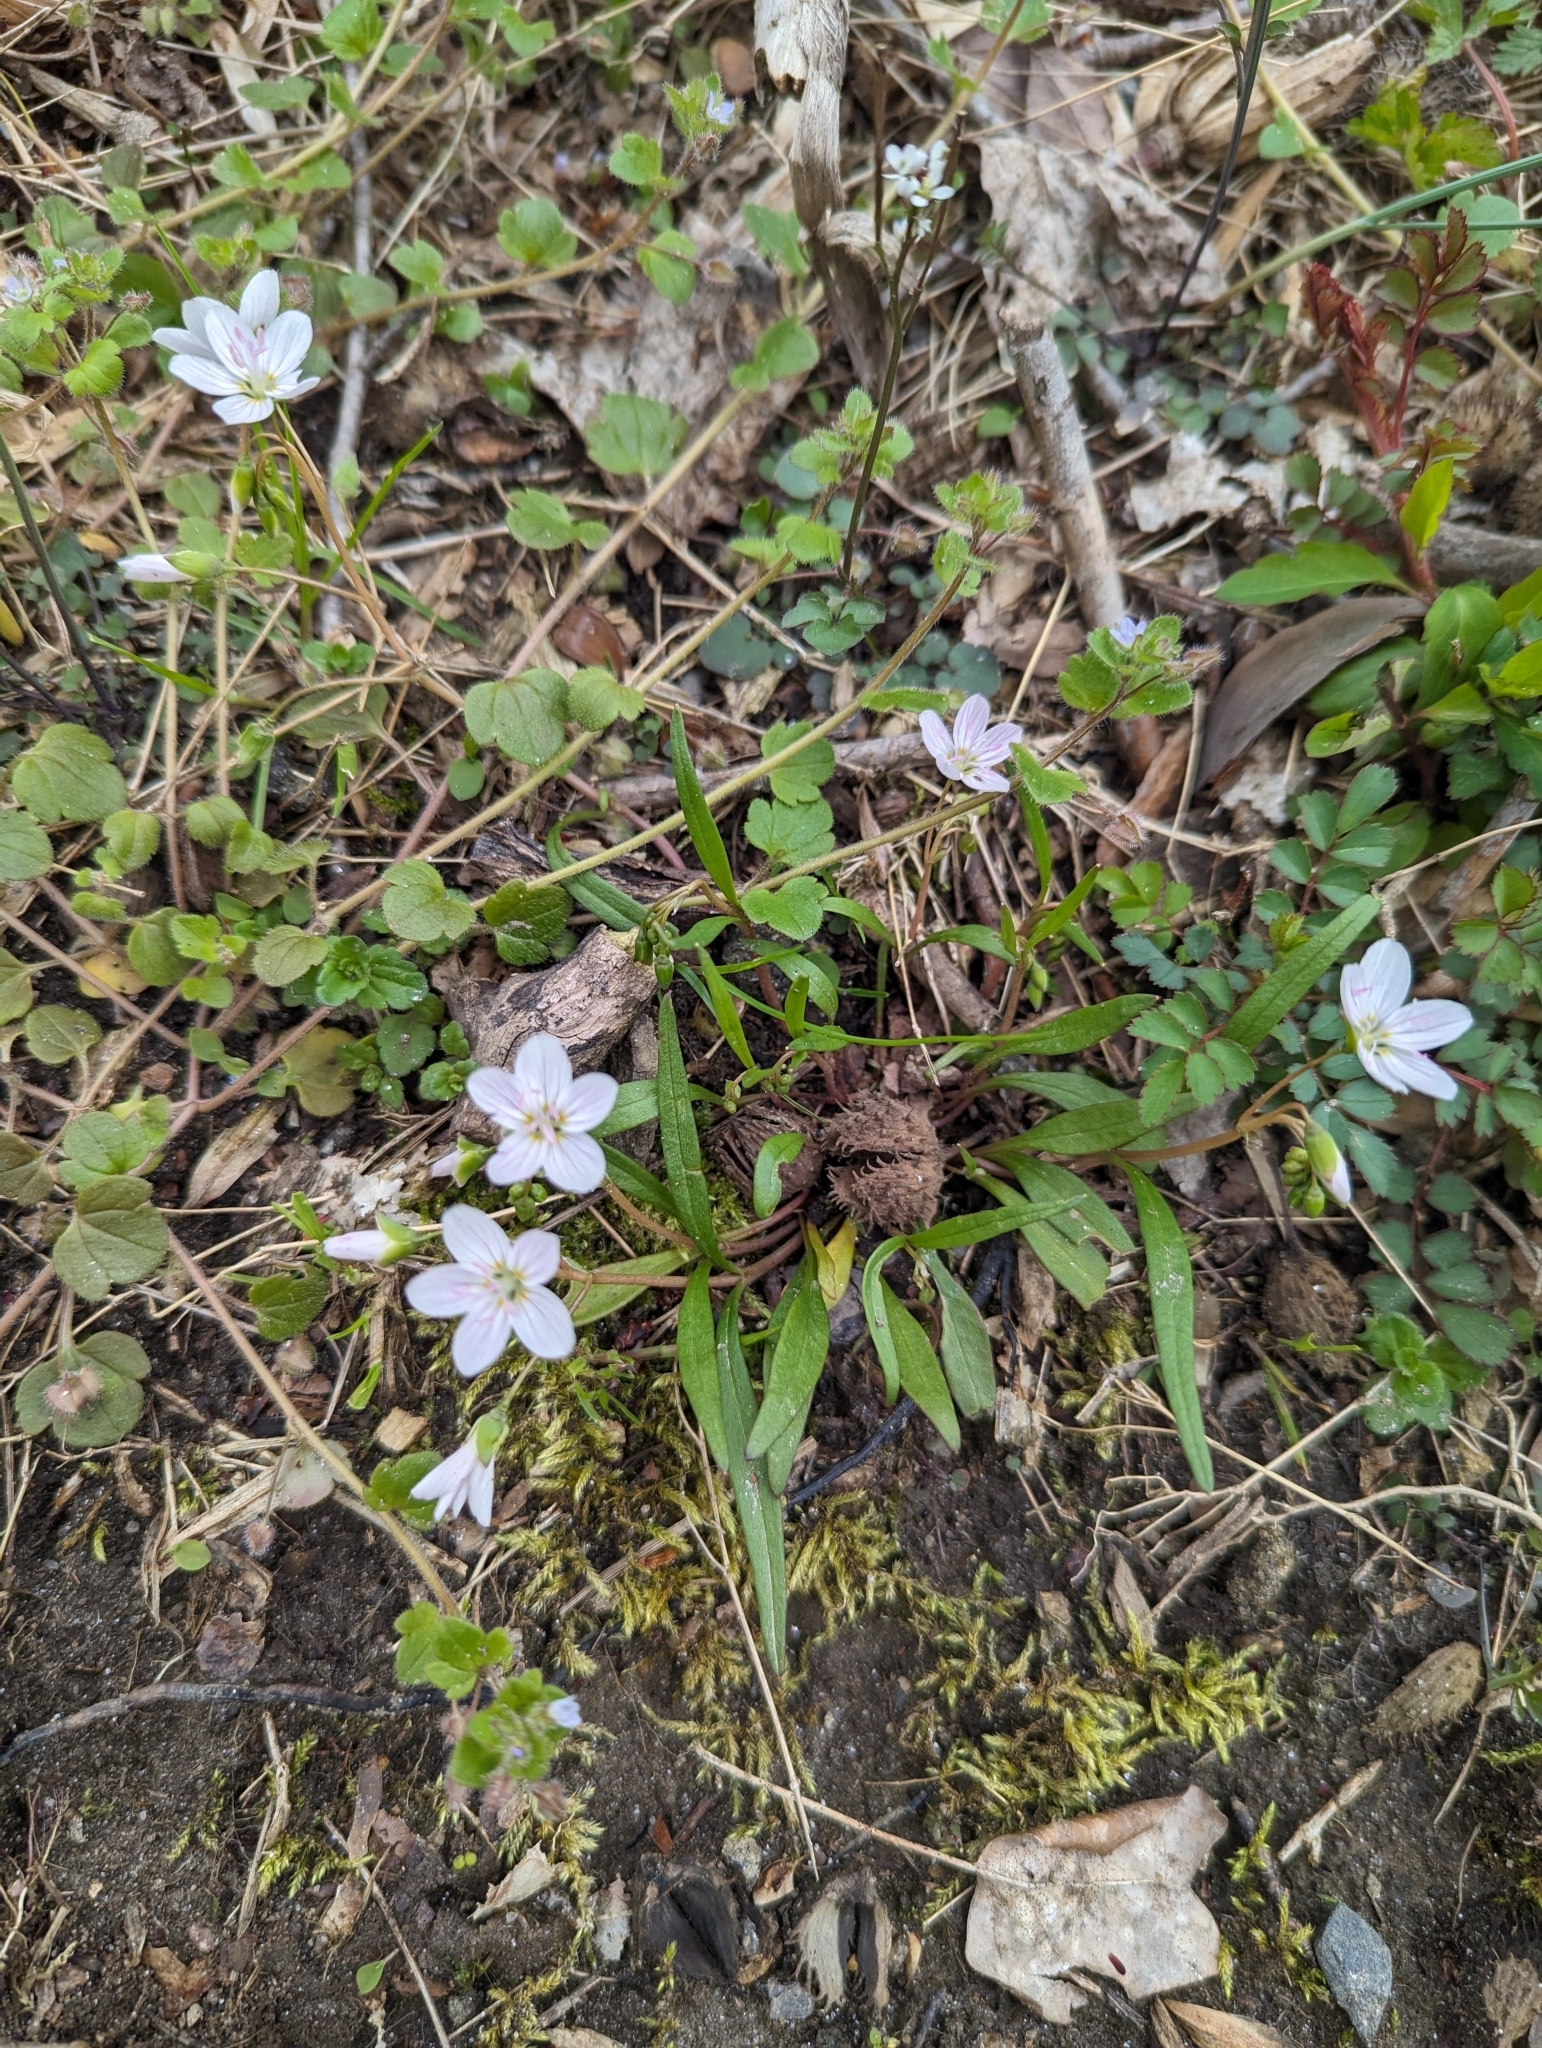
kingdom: Plantae
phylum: Tracheophyta
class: Magnoliopsida
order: Caryophyllales
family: Montiaceae
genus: Claytonia
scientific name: Claytonia virginica
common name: Virginia springbeauty
